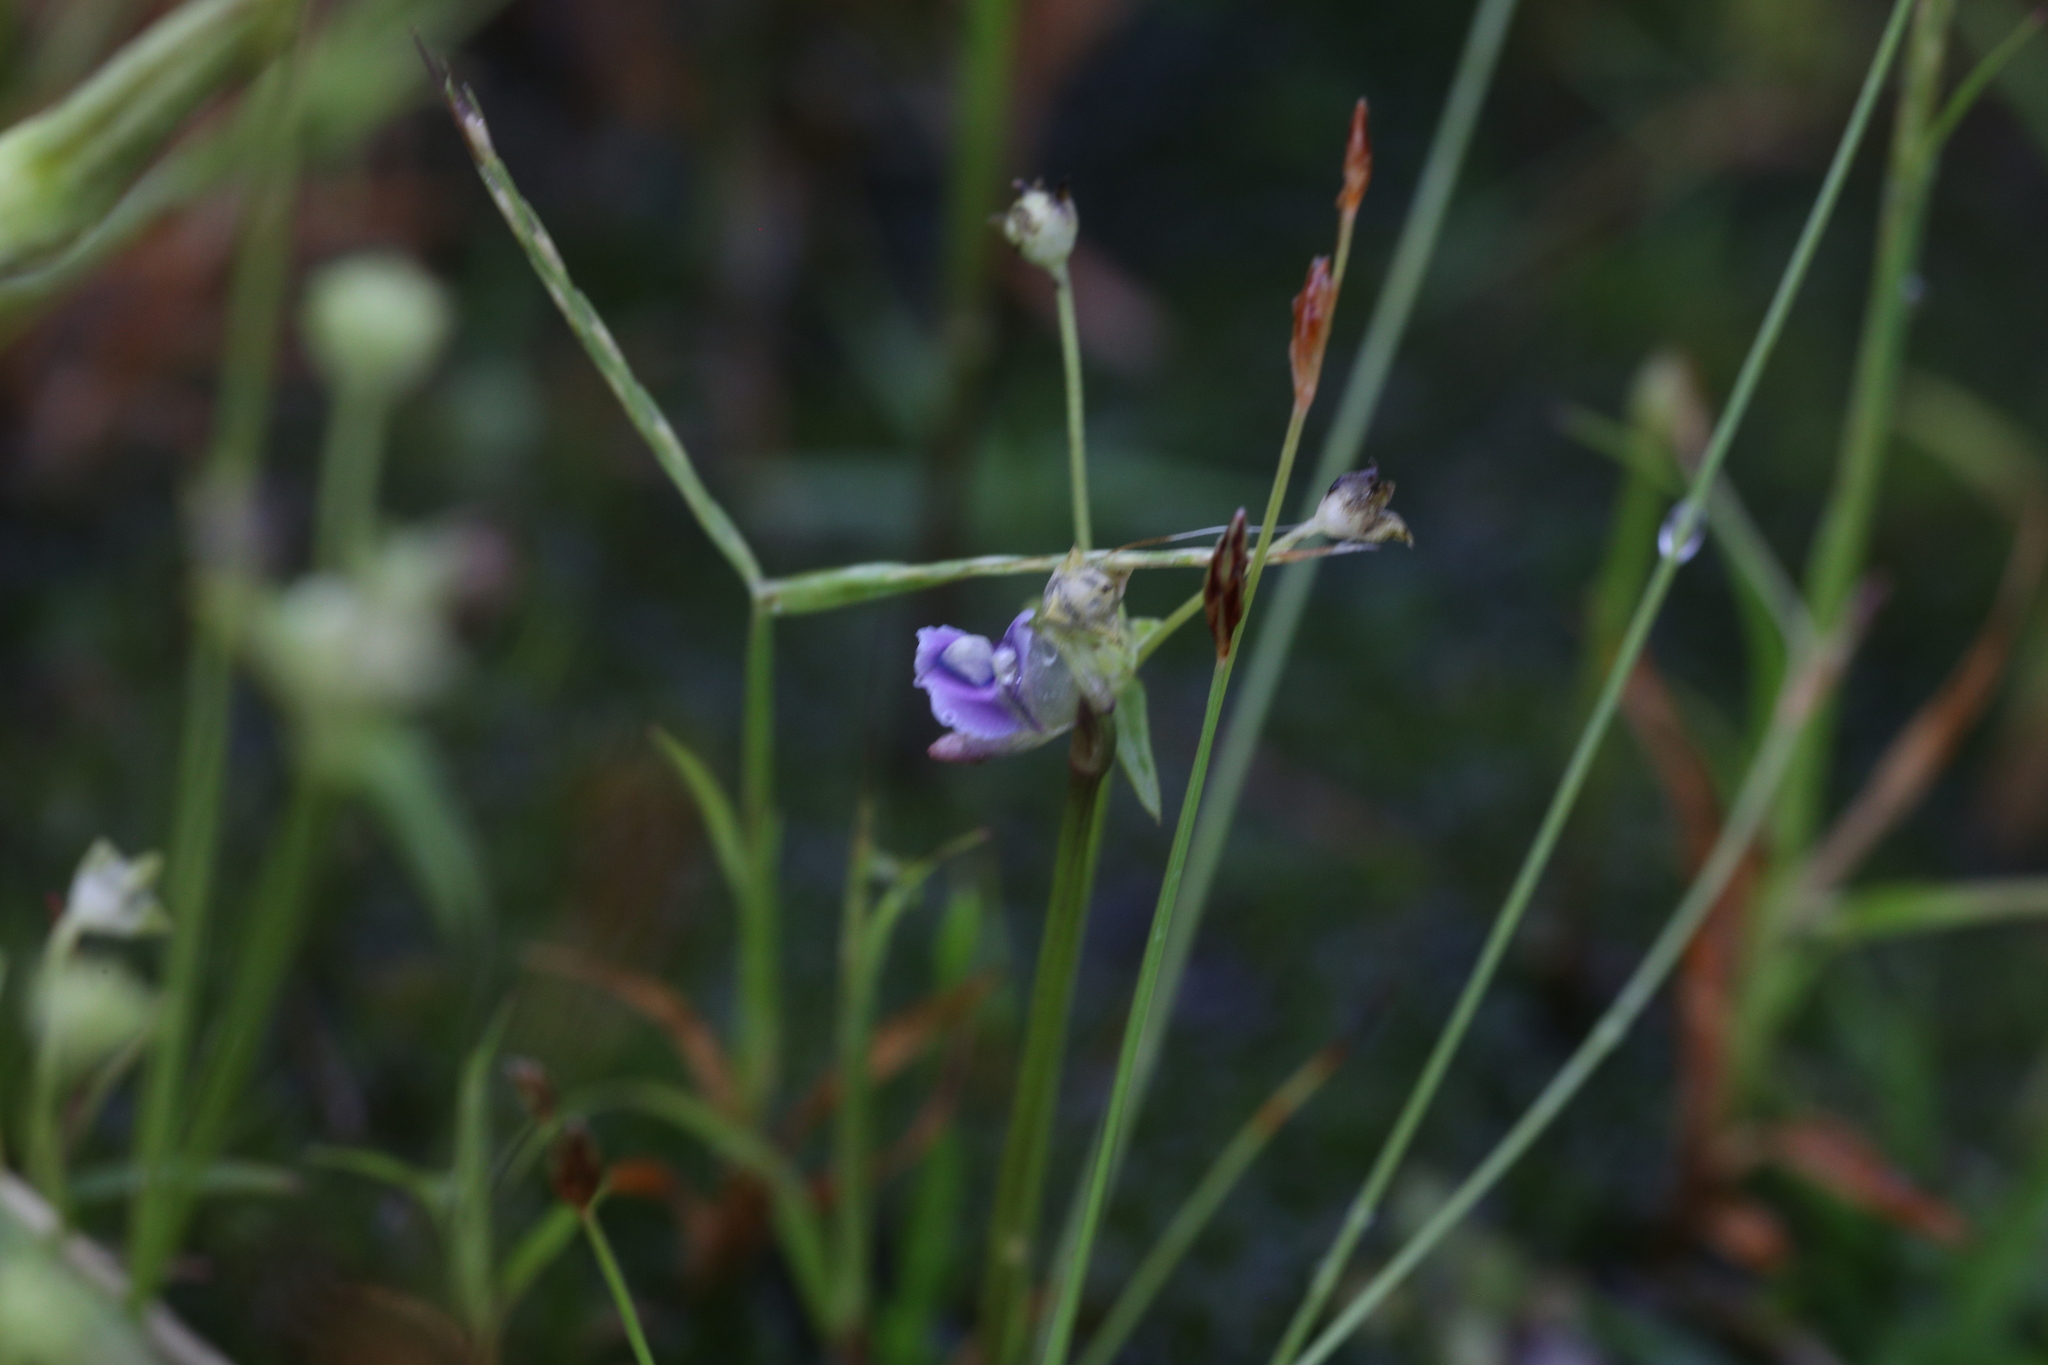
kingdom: Plantae
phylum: Tracheophyta
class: Magnoliopsida
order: Lamiales
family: Lentibulariaceae
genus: Utricularia
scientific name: Utricularia uliginosa
